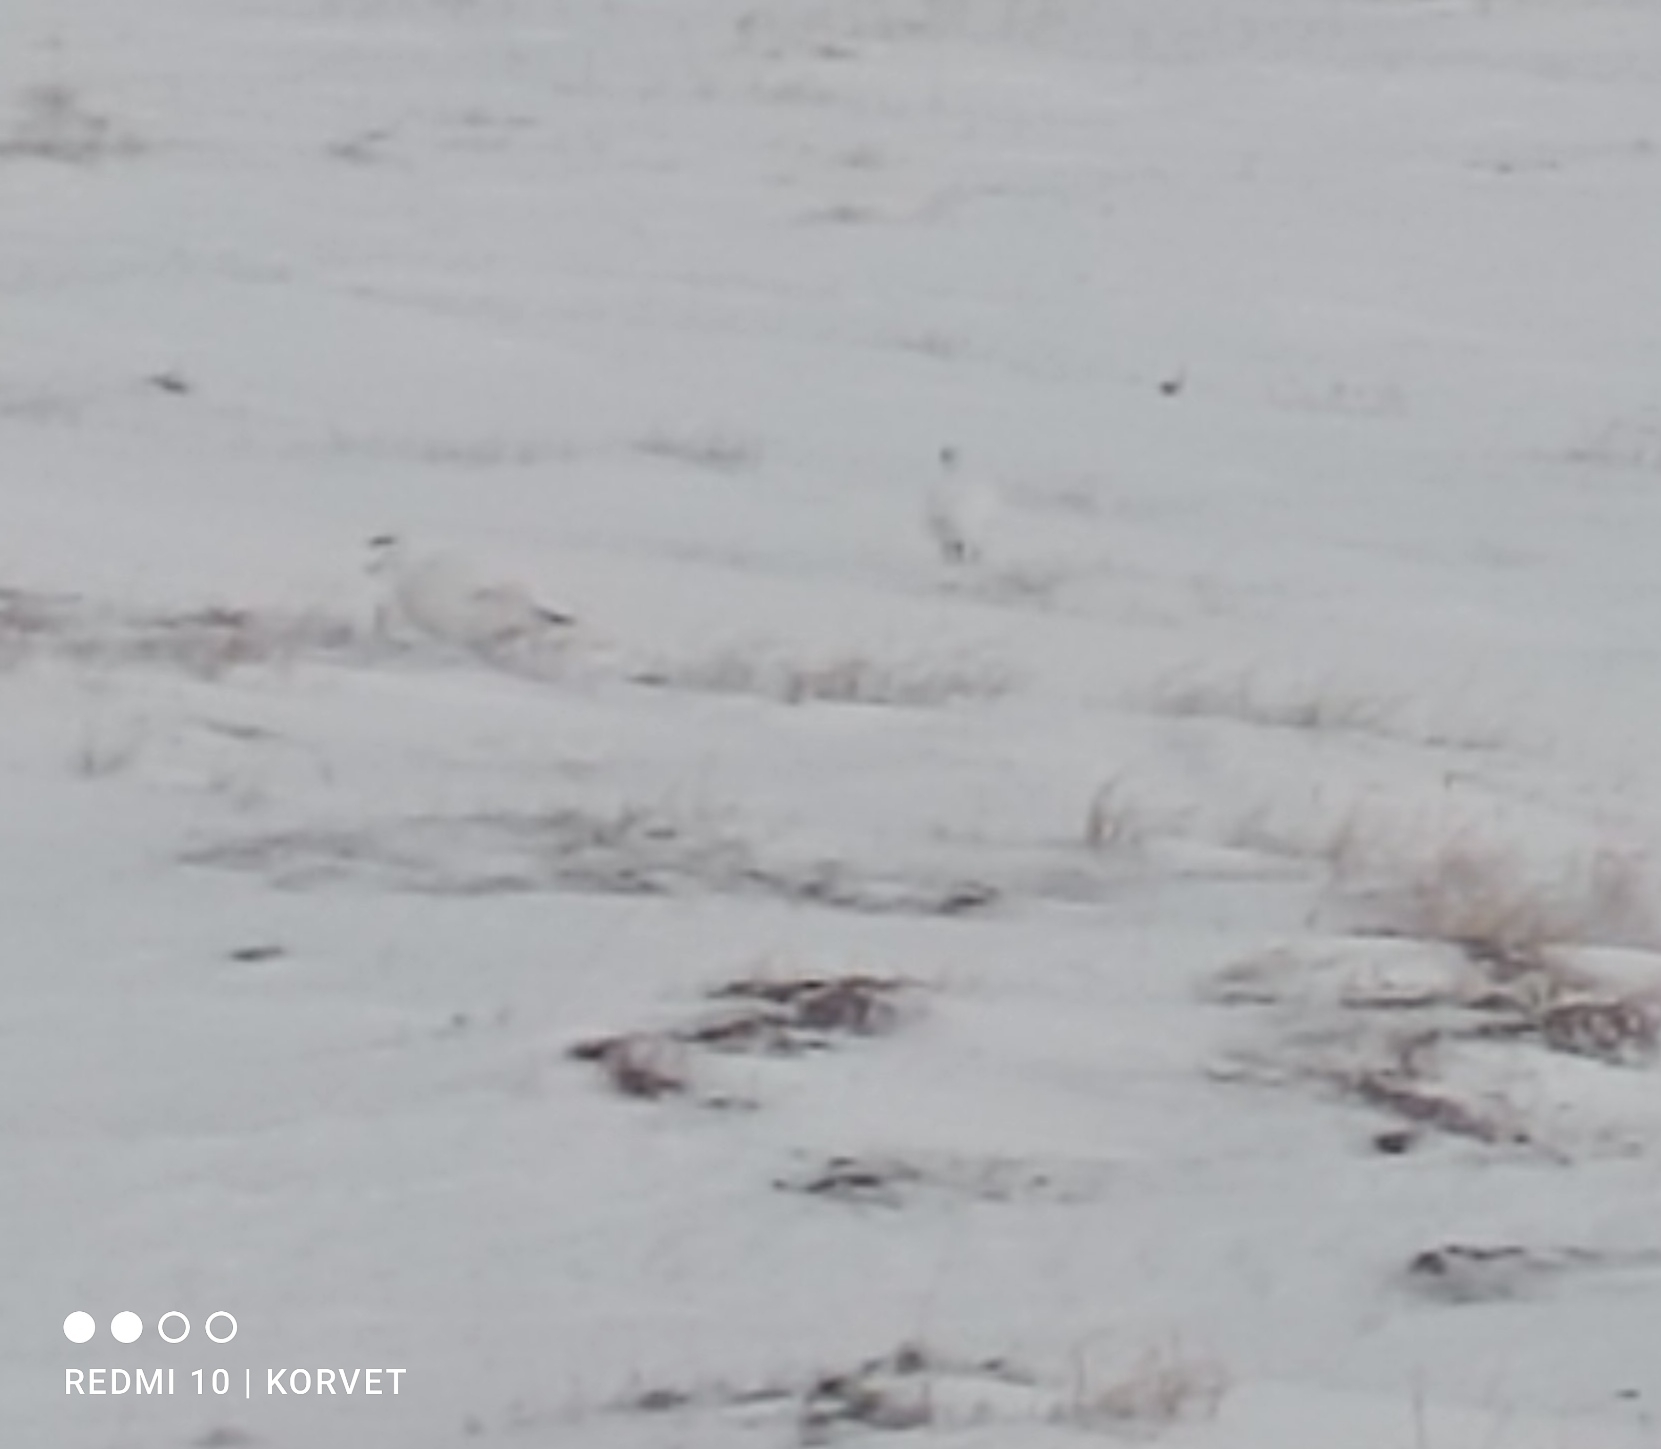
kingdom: Animalia
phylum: Chordata
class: Aves
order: Galliformes
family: Phasianidae
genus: Lagopus
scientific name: Lagopus lagopus
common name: Willow ptarmigan
